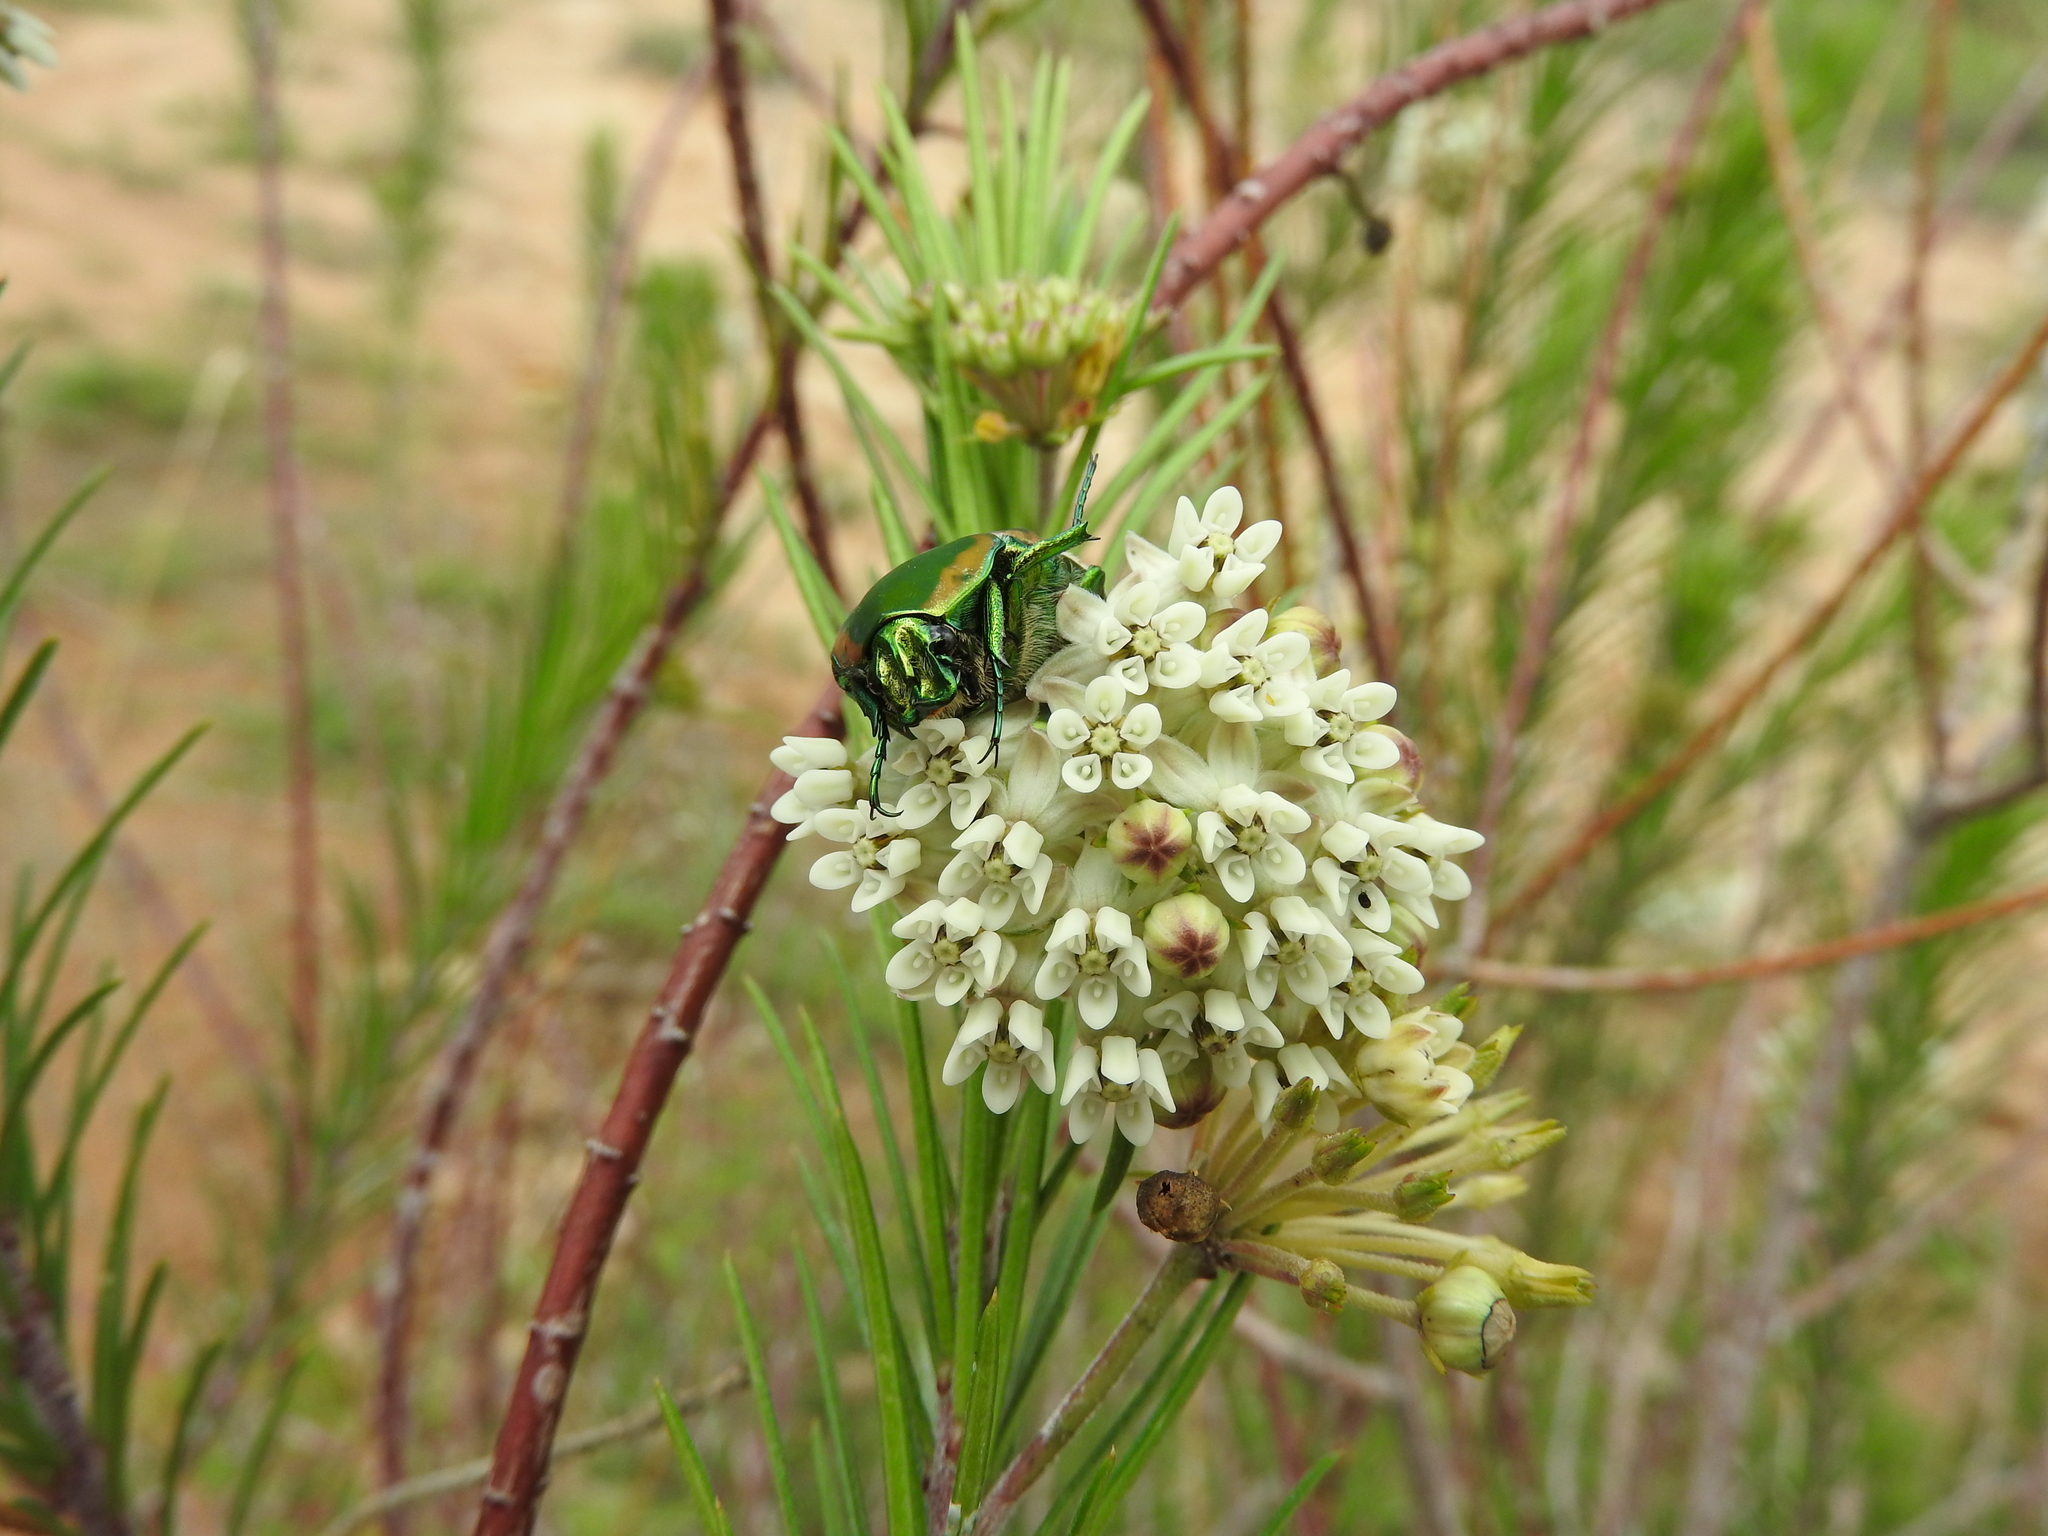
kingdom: Plantae
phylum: Tracheophyta
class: Magnoliopsida
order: Gentianales
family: Apocynaceae
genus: Asclepias
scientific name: Asclepias linaria
